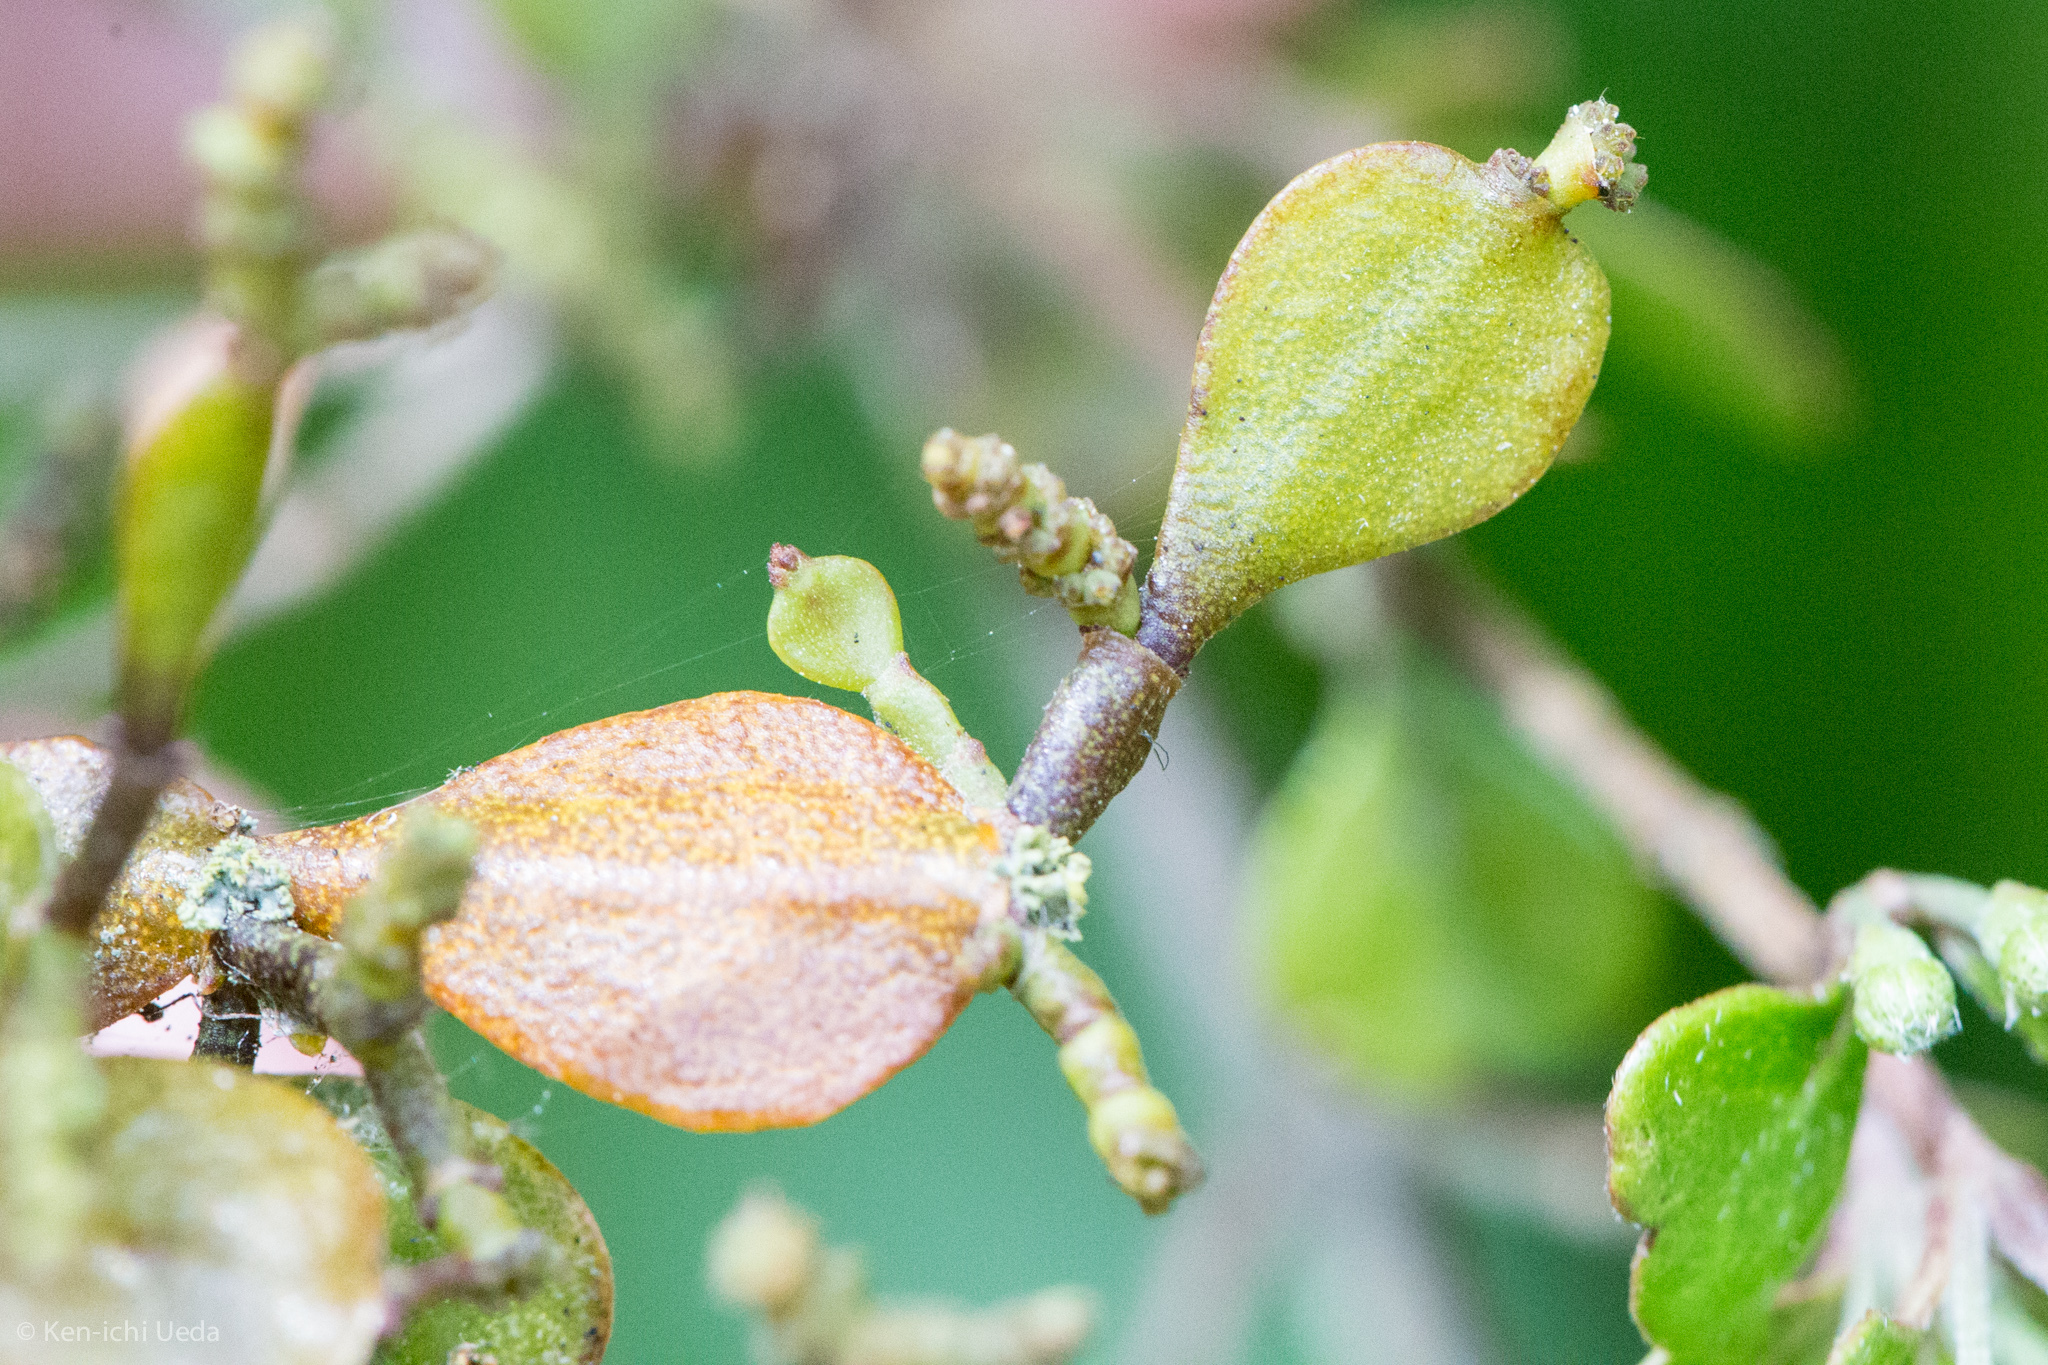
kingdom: Plantae
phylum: Tracheophyta
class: Magnoliopsida
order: Santalales
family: Viscaceae
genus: Korthalsella
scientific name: Korthalsella lindsayi
